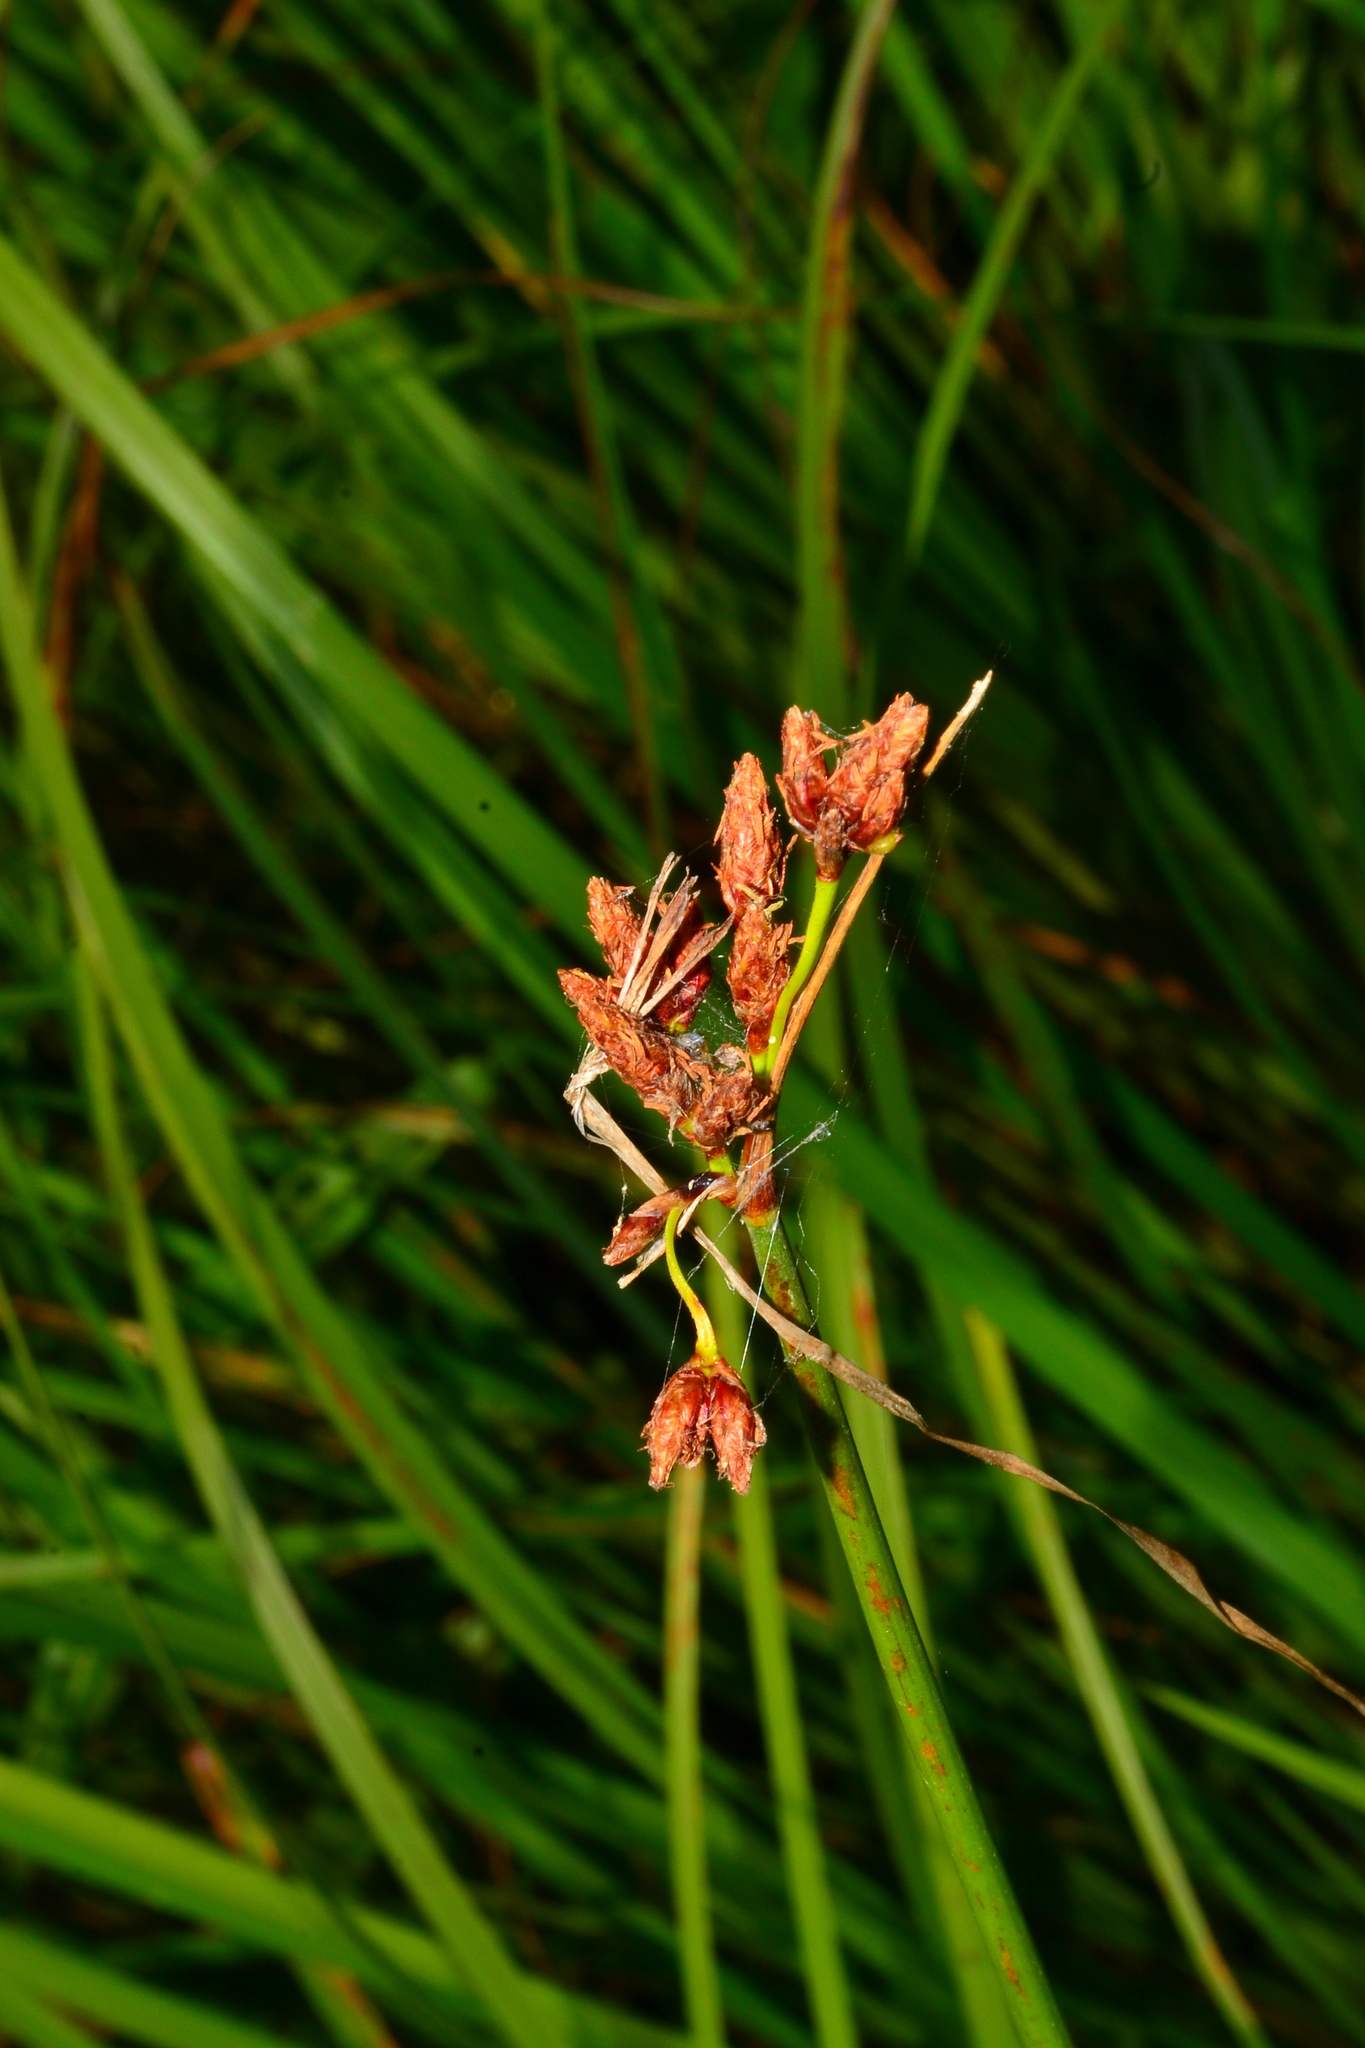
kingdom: Plantae
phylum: Tracheophyta
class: Liliopsida
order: Poales
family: Cyperaceae
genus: Schoenoplectus
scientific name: Schoenoplectus lacustris
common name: Common club-rush
